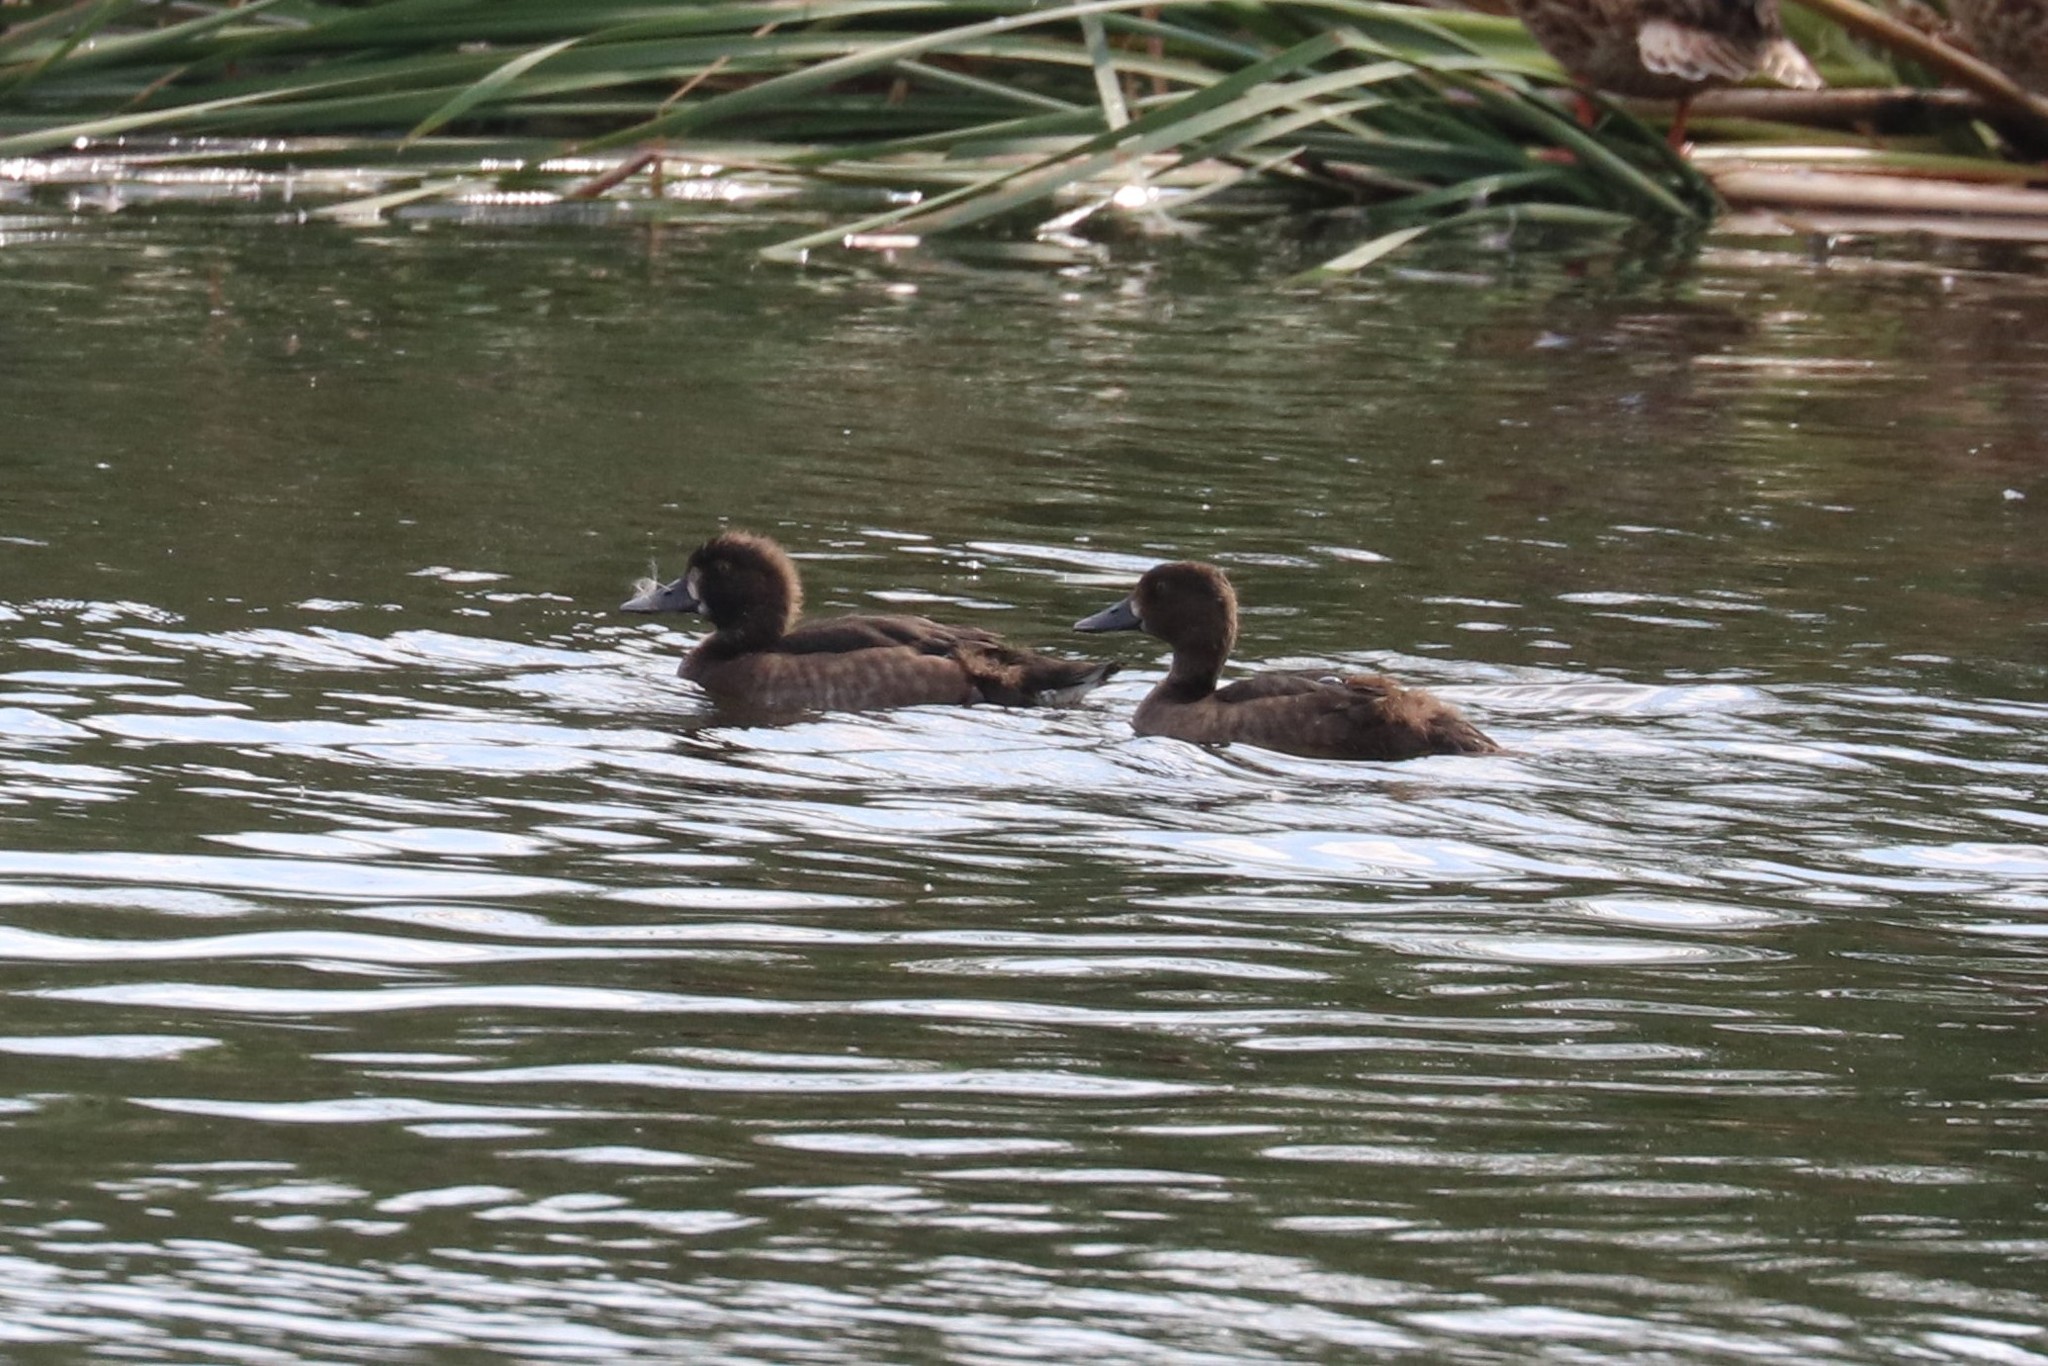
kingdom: Animalia
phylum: Chordata
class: Aves
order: Anseriformes
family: Anatidae
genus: Aythya
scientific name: Aythya fuligula
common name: Tufted duck
